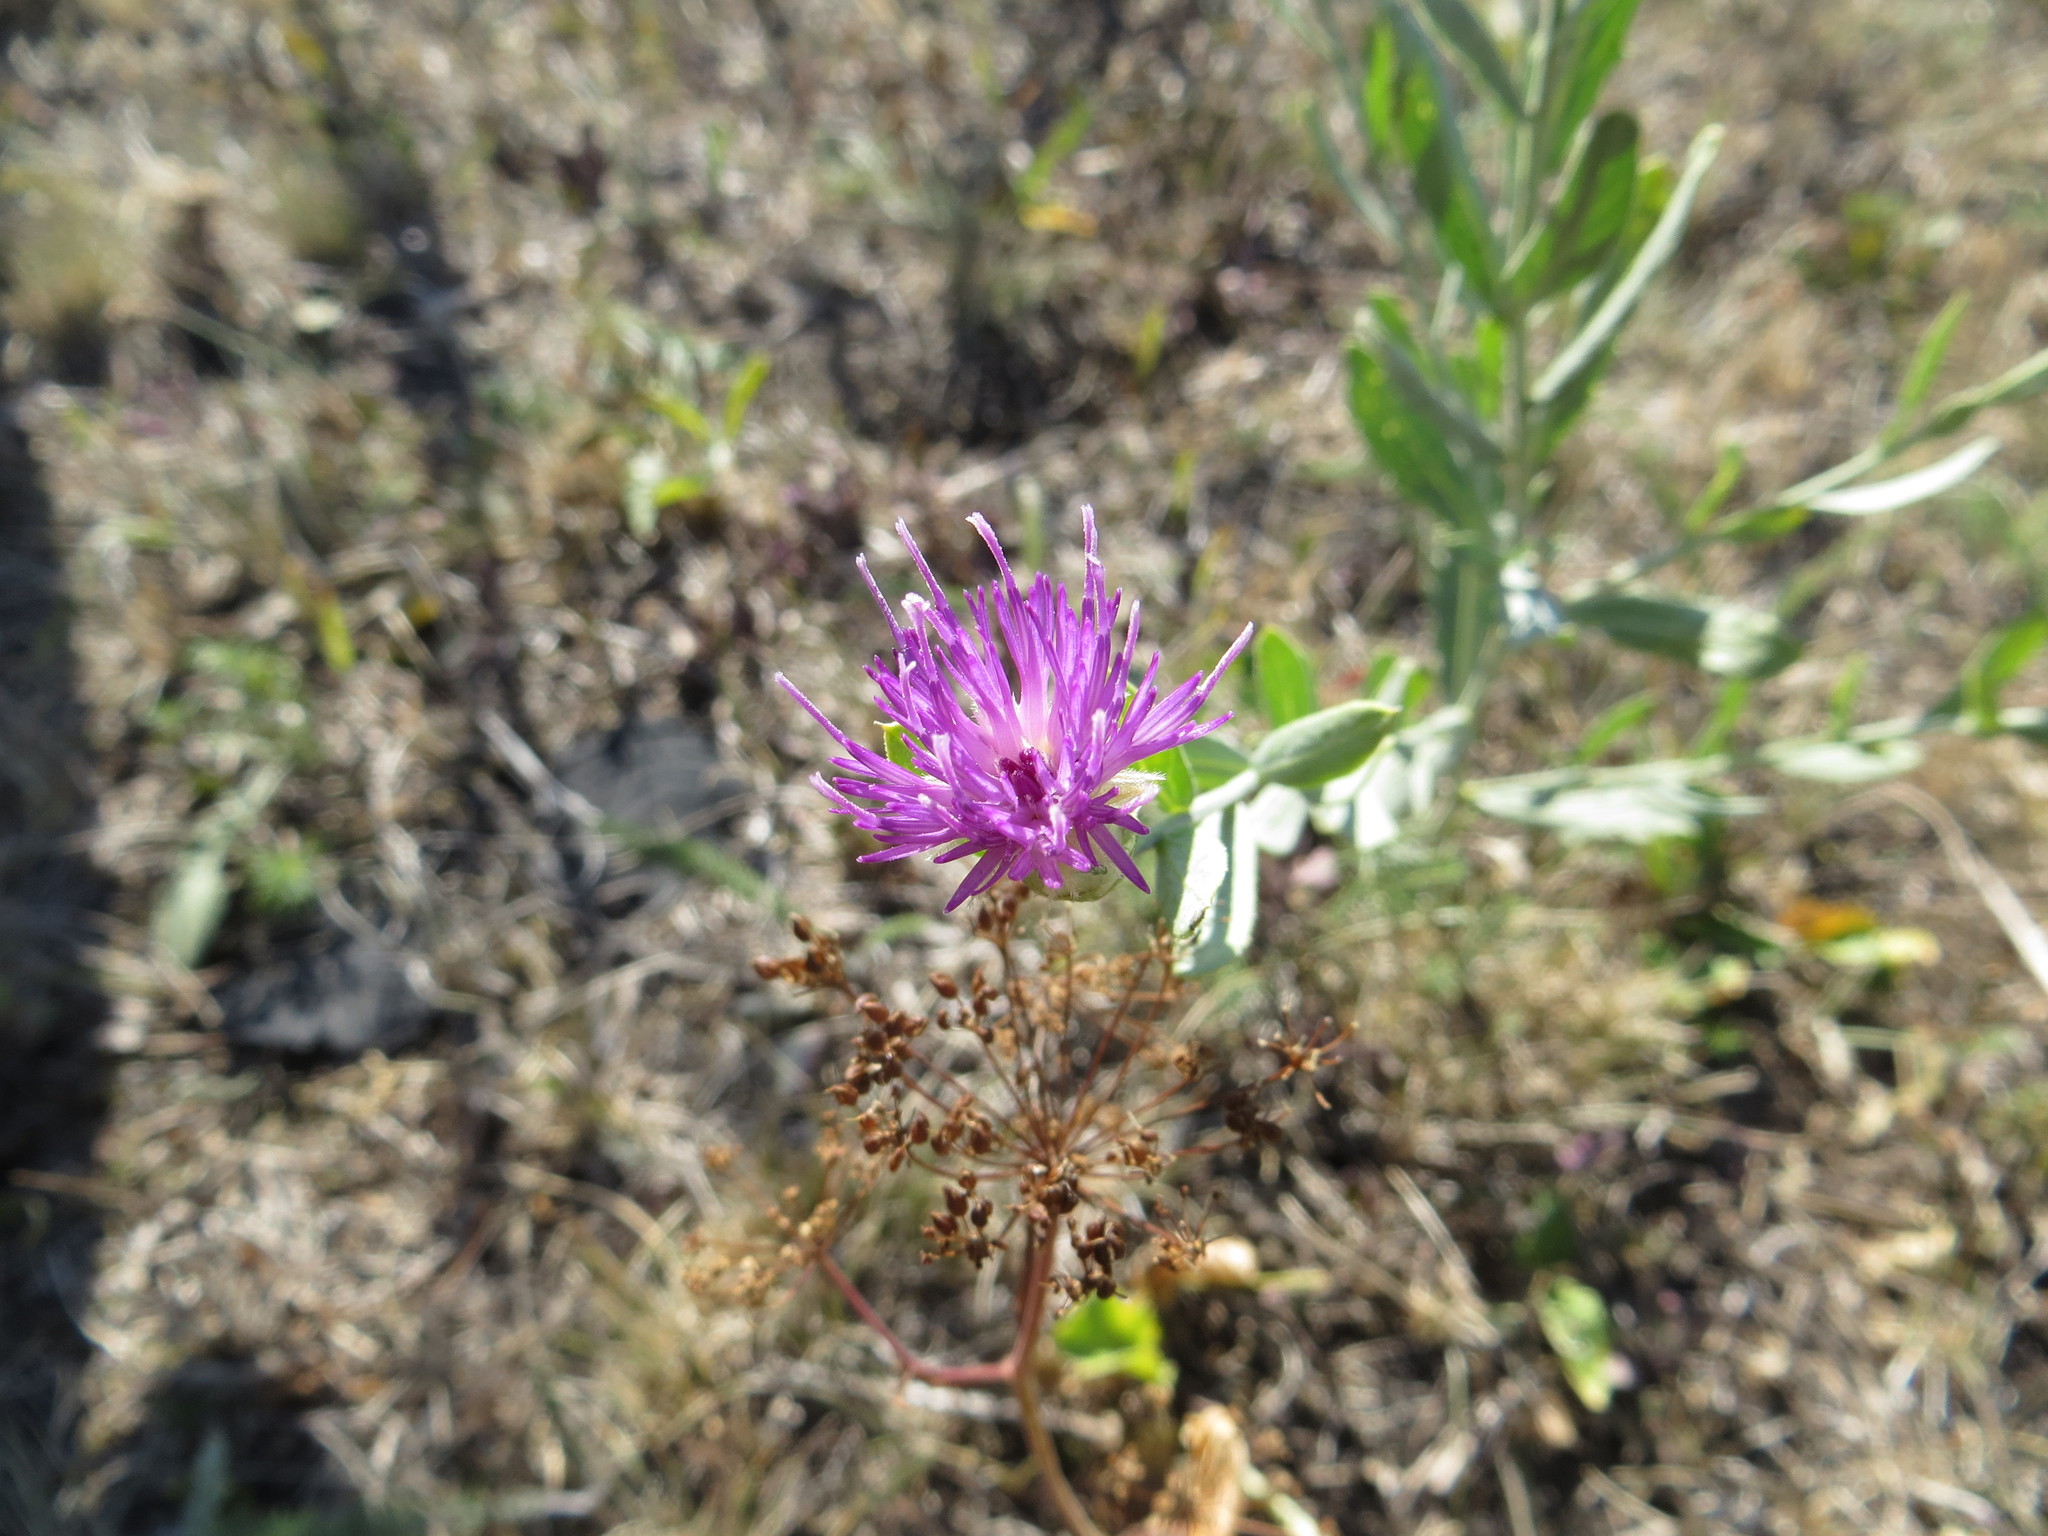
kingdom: Plantae
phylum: Tracheophyta
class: Magnoliopsida
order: Asterales
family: Asteraceae
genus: Leuzea
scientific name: Leuzea repens
